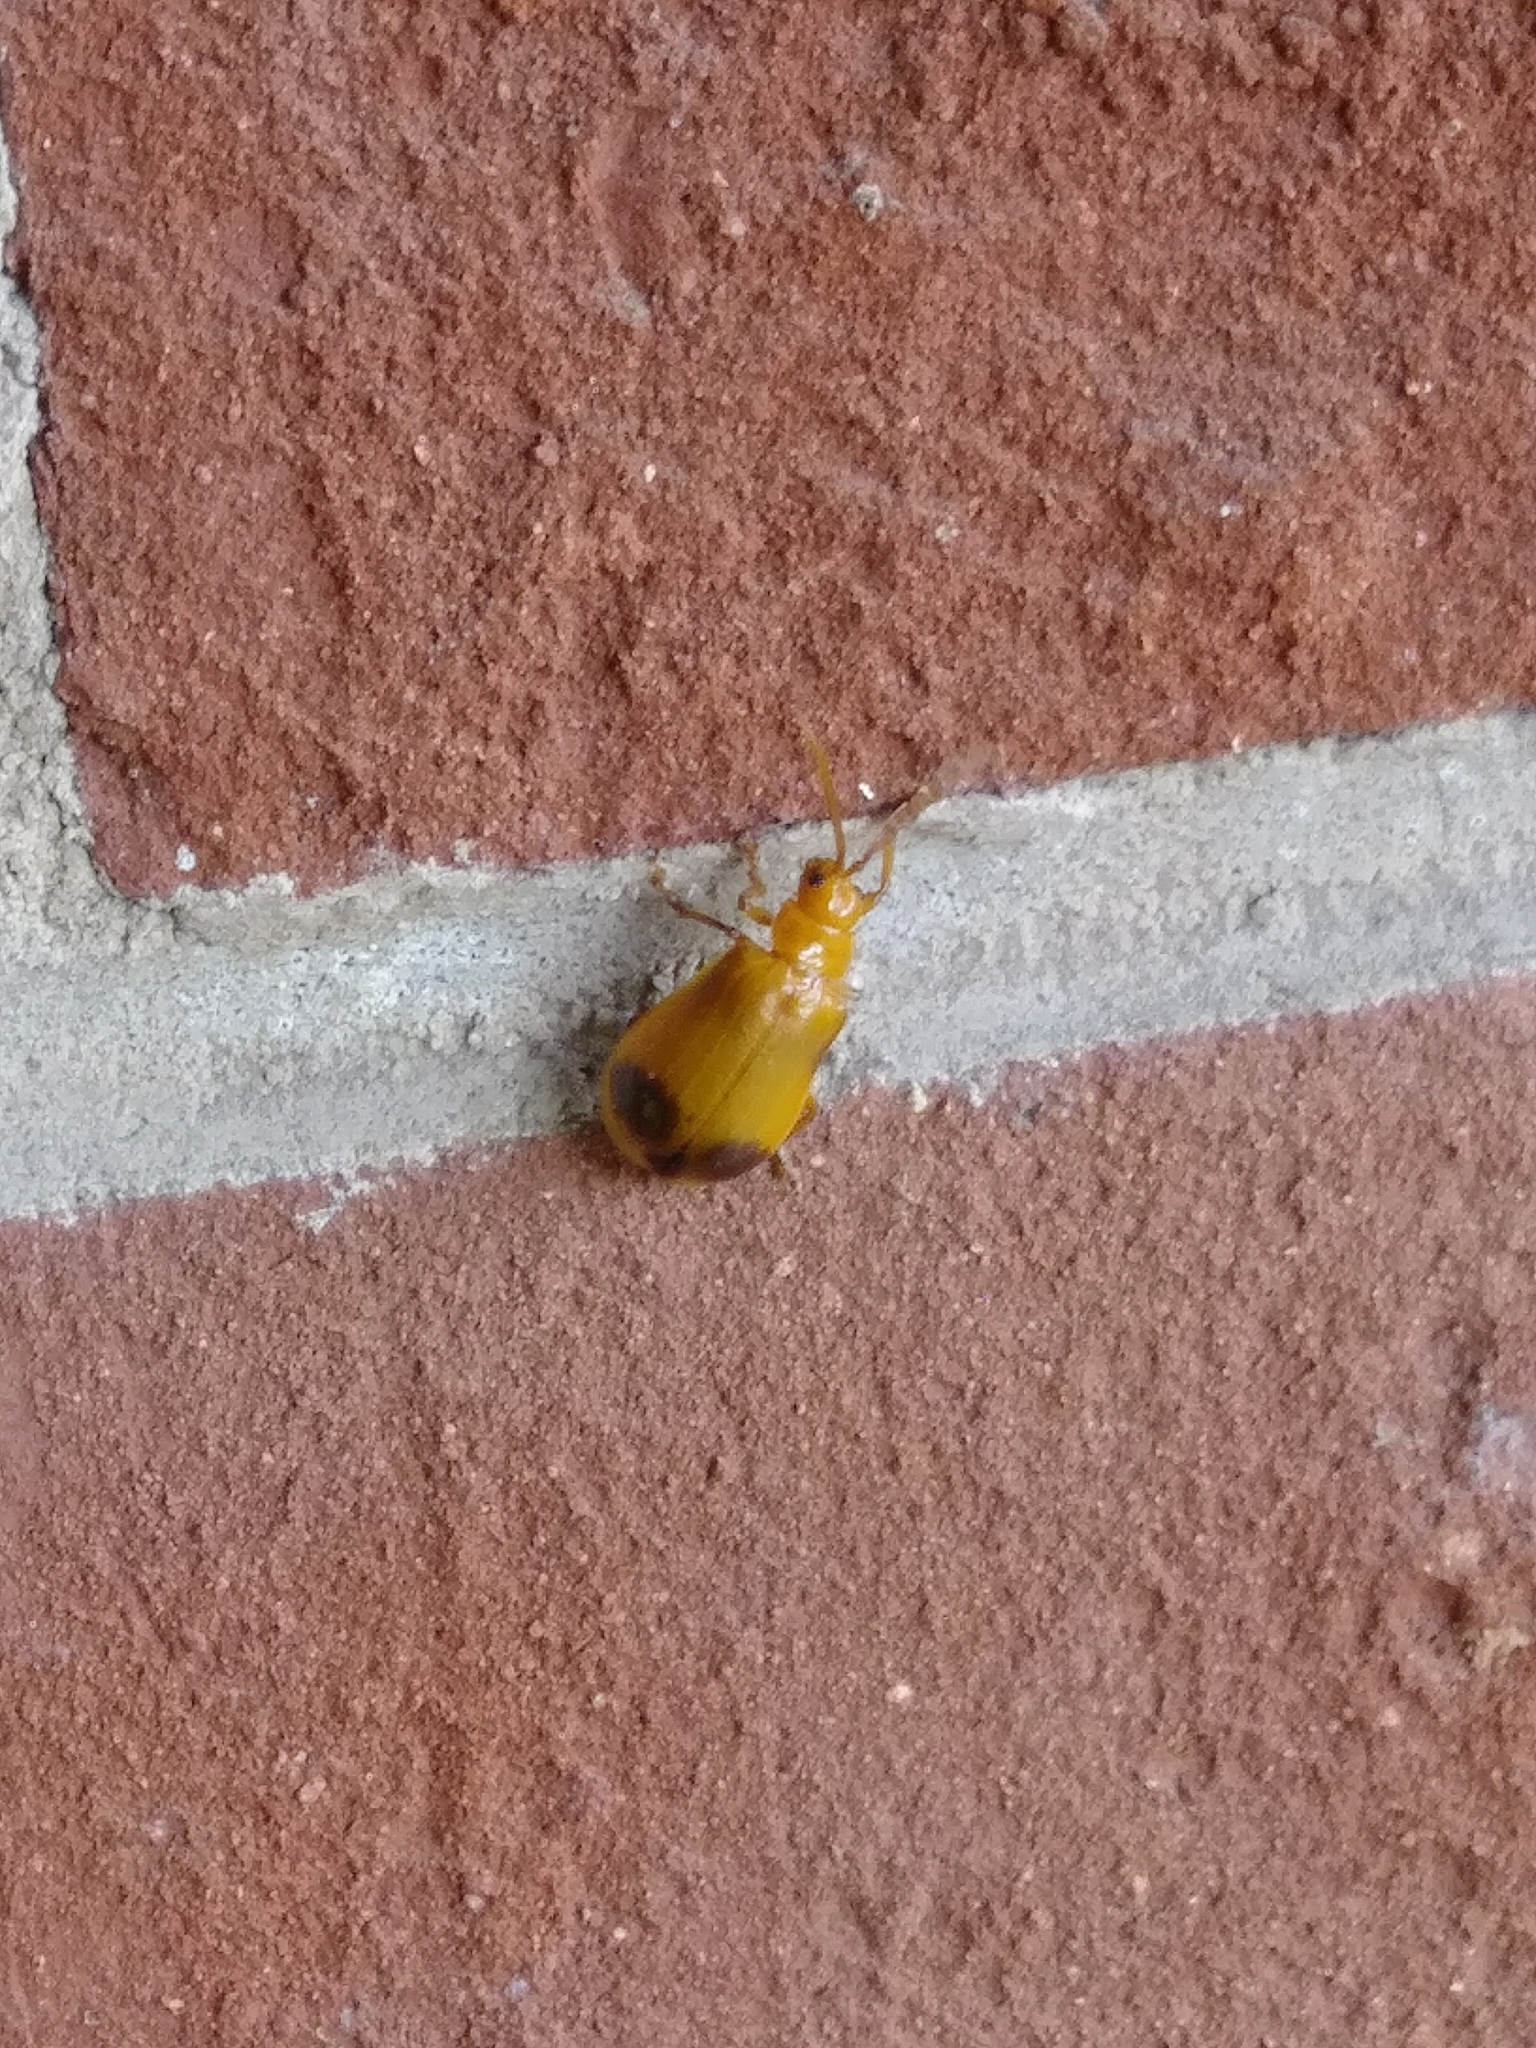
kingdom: Animalia
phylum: Arthropoda
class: Insecta
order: Coleoptera
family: Chrysomelidae
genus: Monocesta
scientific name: Monocesta coryli
